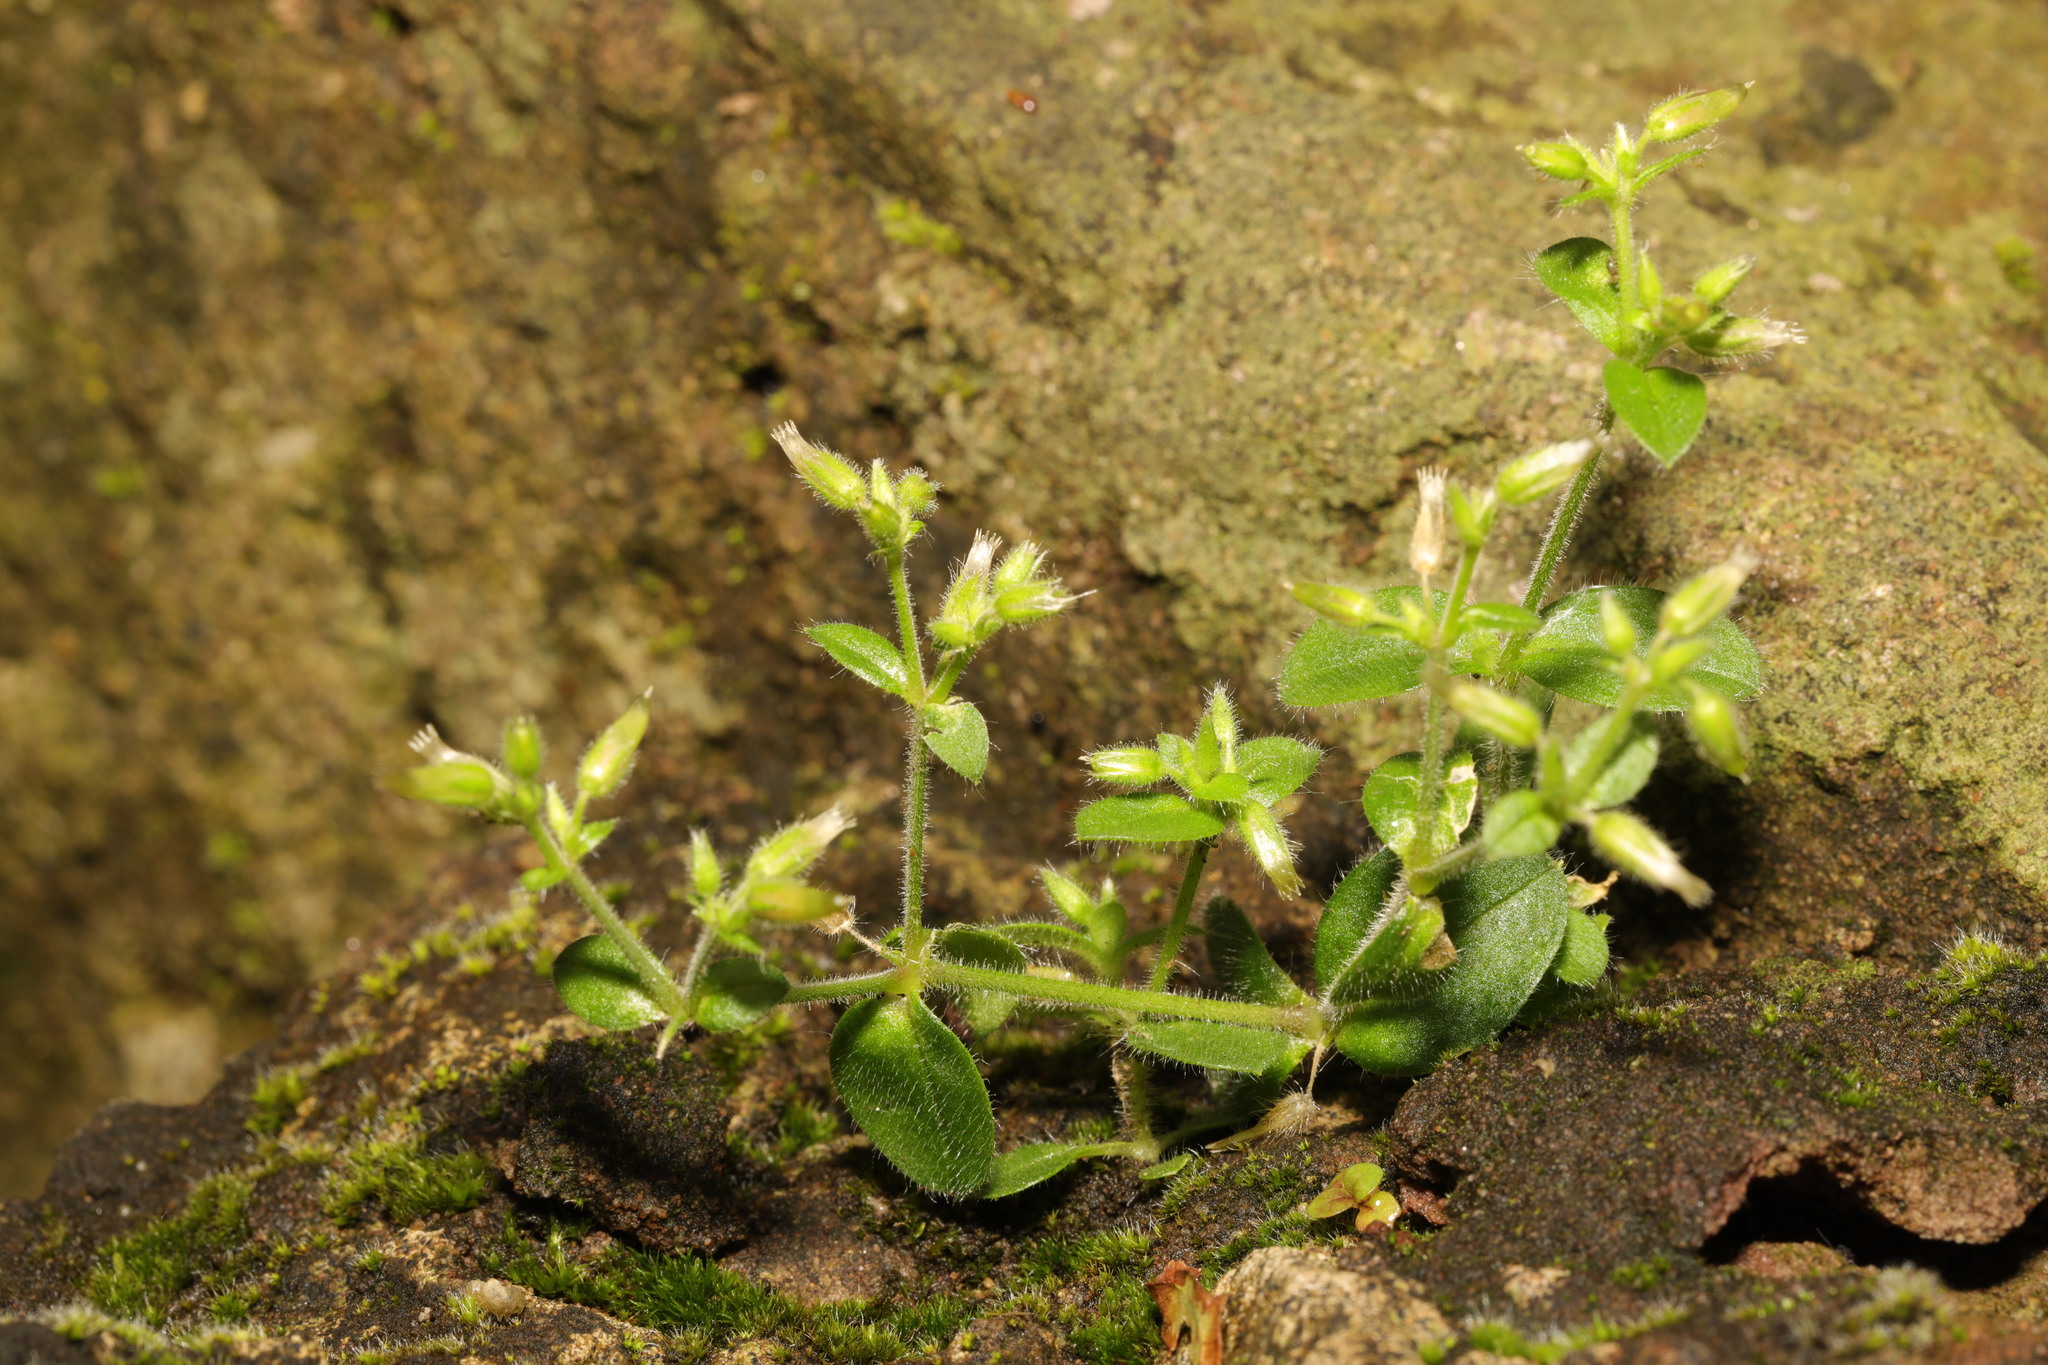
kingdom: Plantae
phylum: Tracheophyta
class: Magnoliopsida
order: Caryophyllales
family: Caryophyllaceae
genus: Cerastium
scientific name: Cerastium glomeratum
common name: Sticky chickweed
